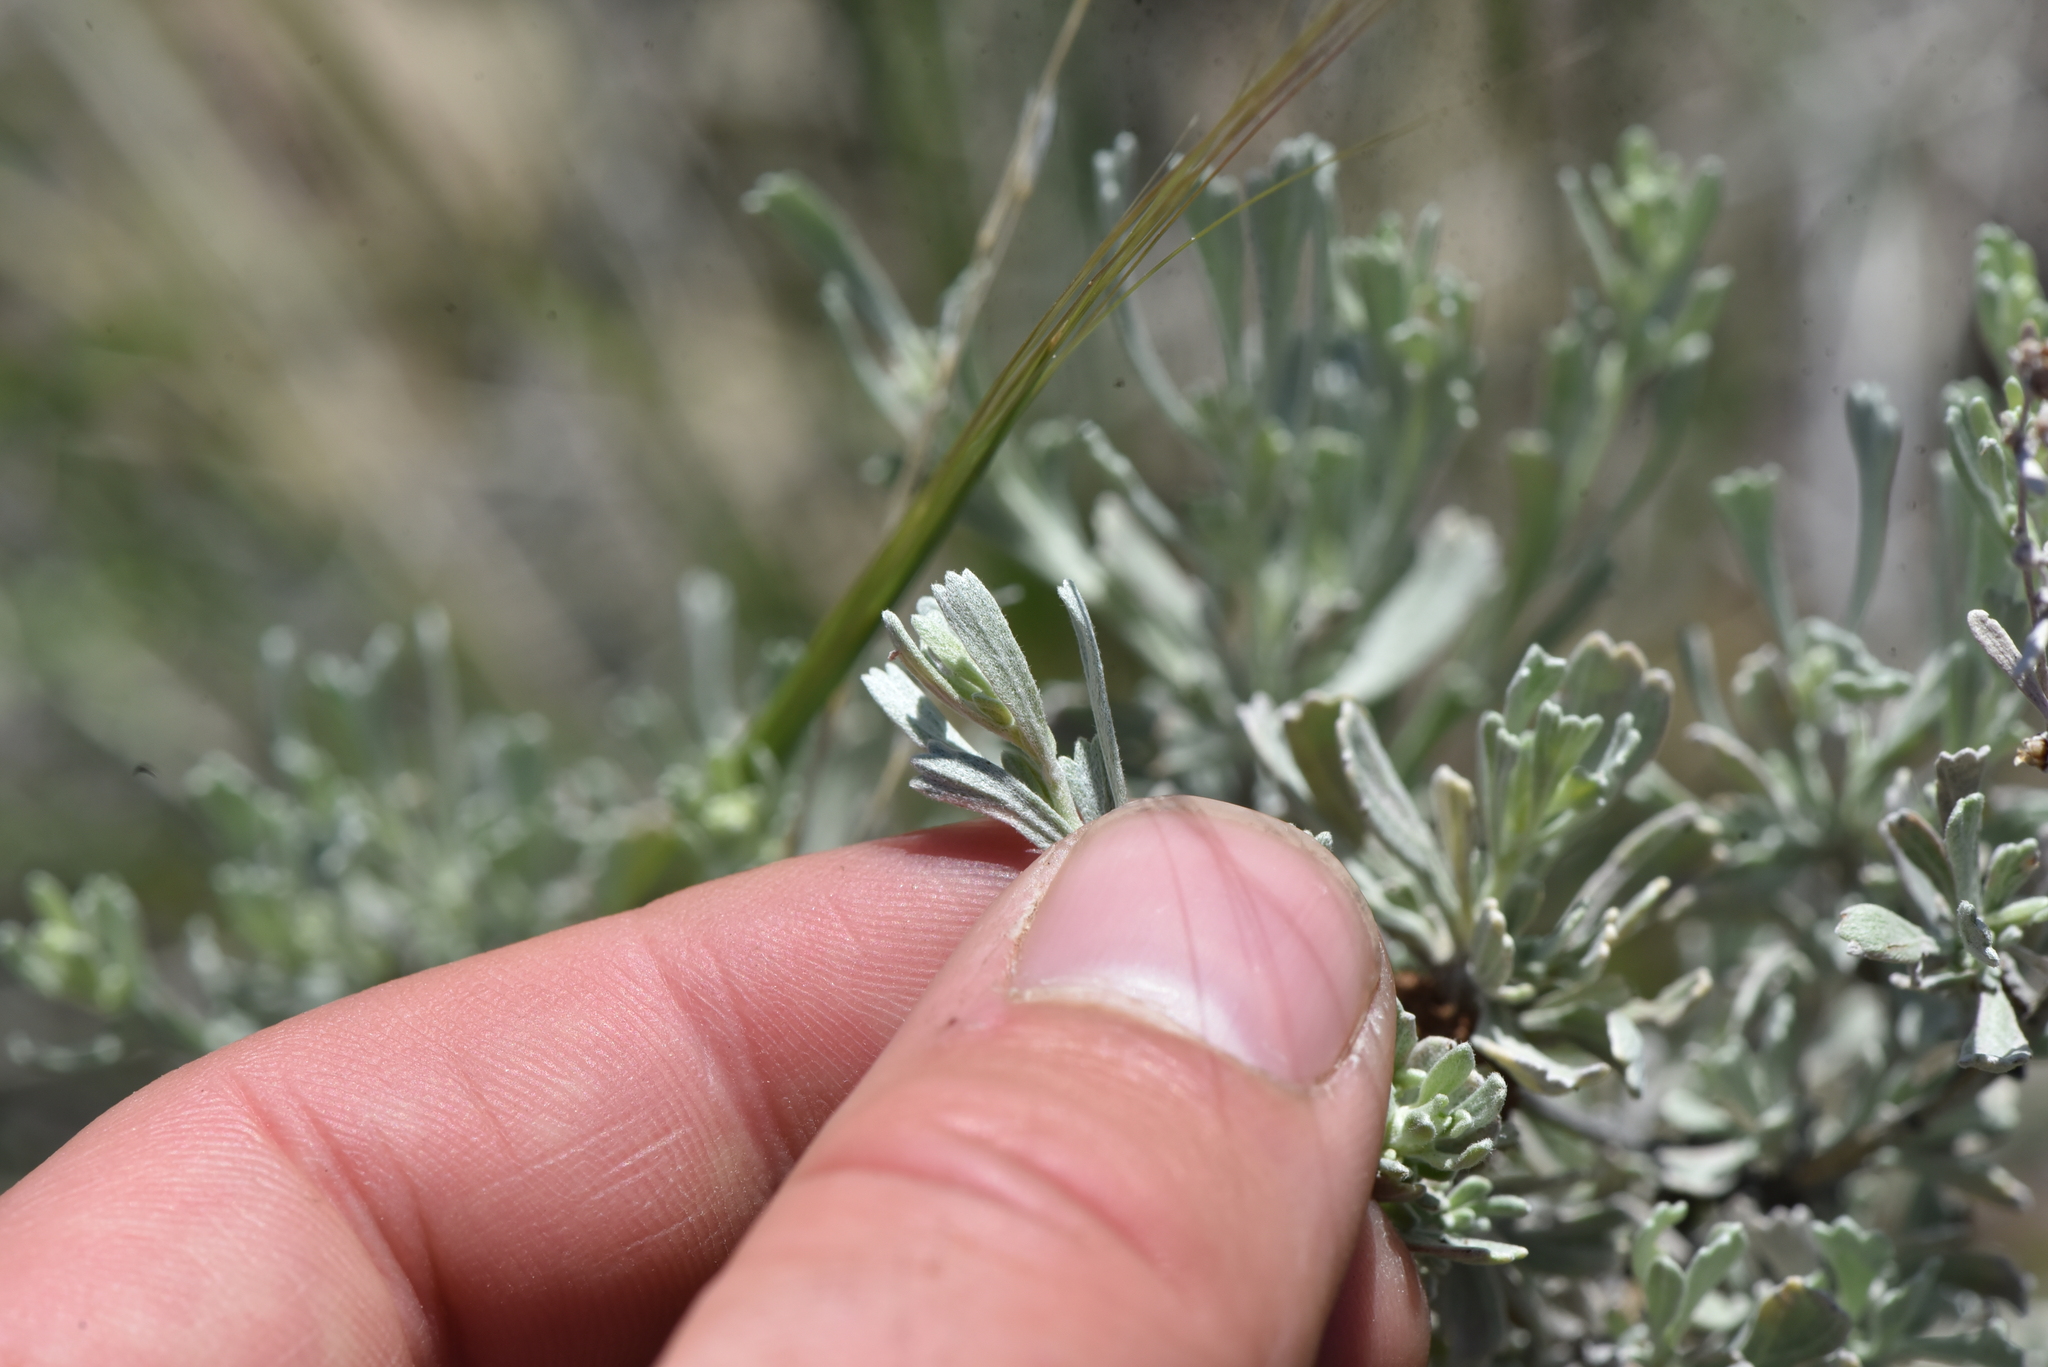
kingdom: Animalia
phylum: Arthropoda
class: Insecta
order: Diptera
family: Cecidomyiidae
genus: Rhopalomyia
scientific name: Rhopalomyia medusa
